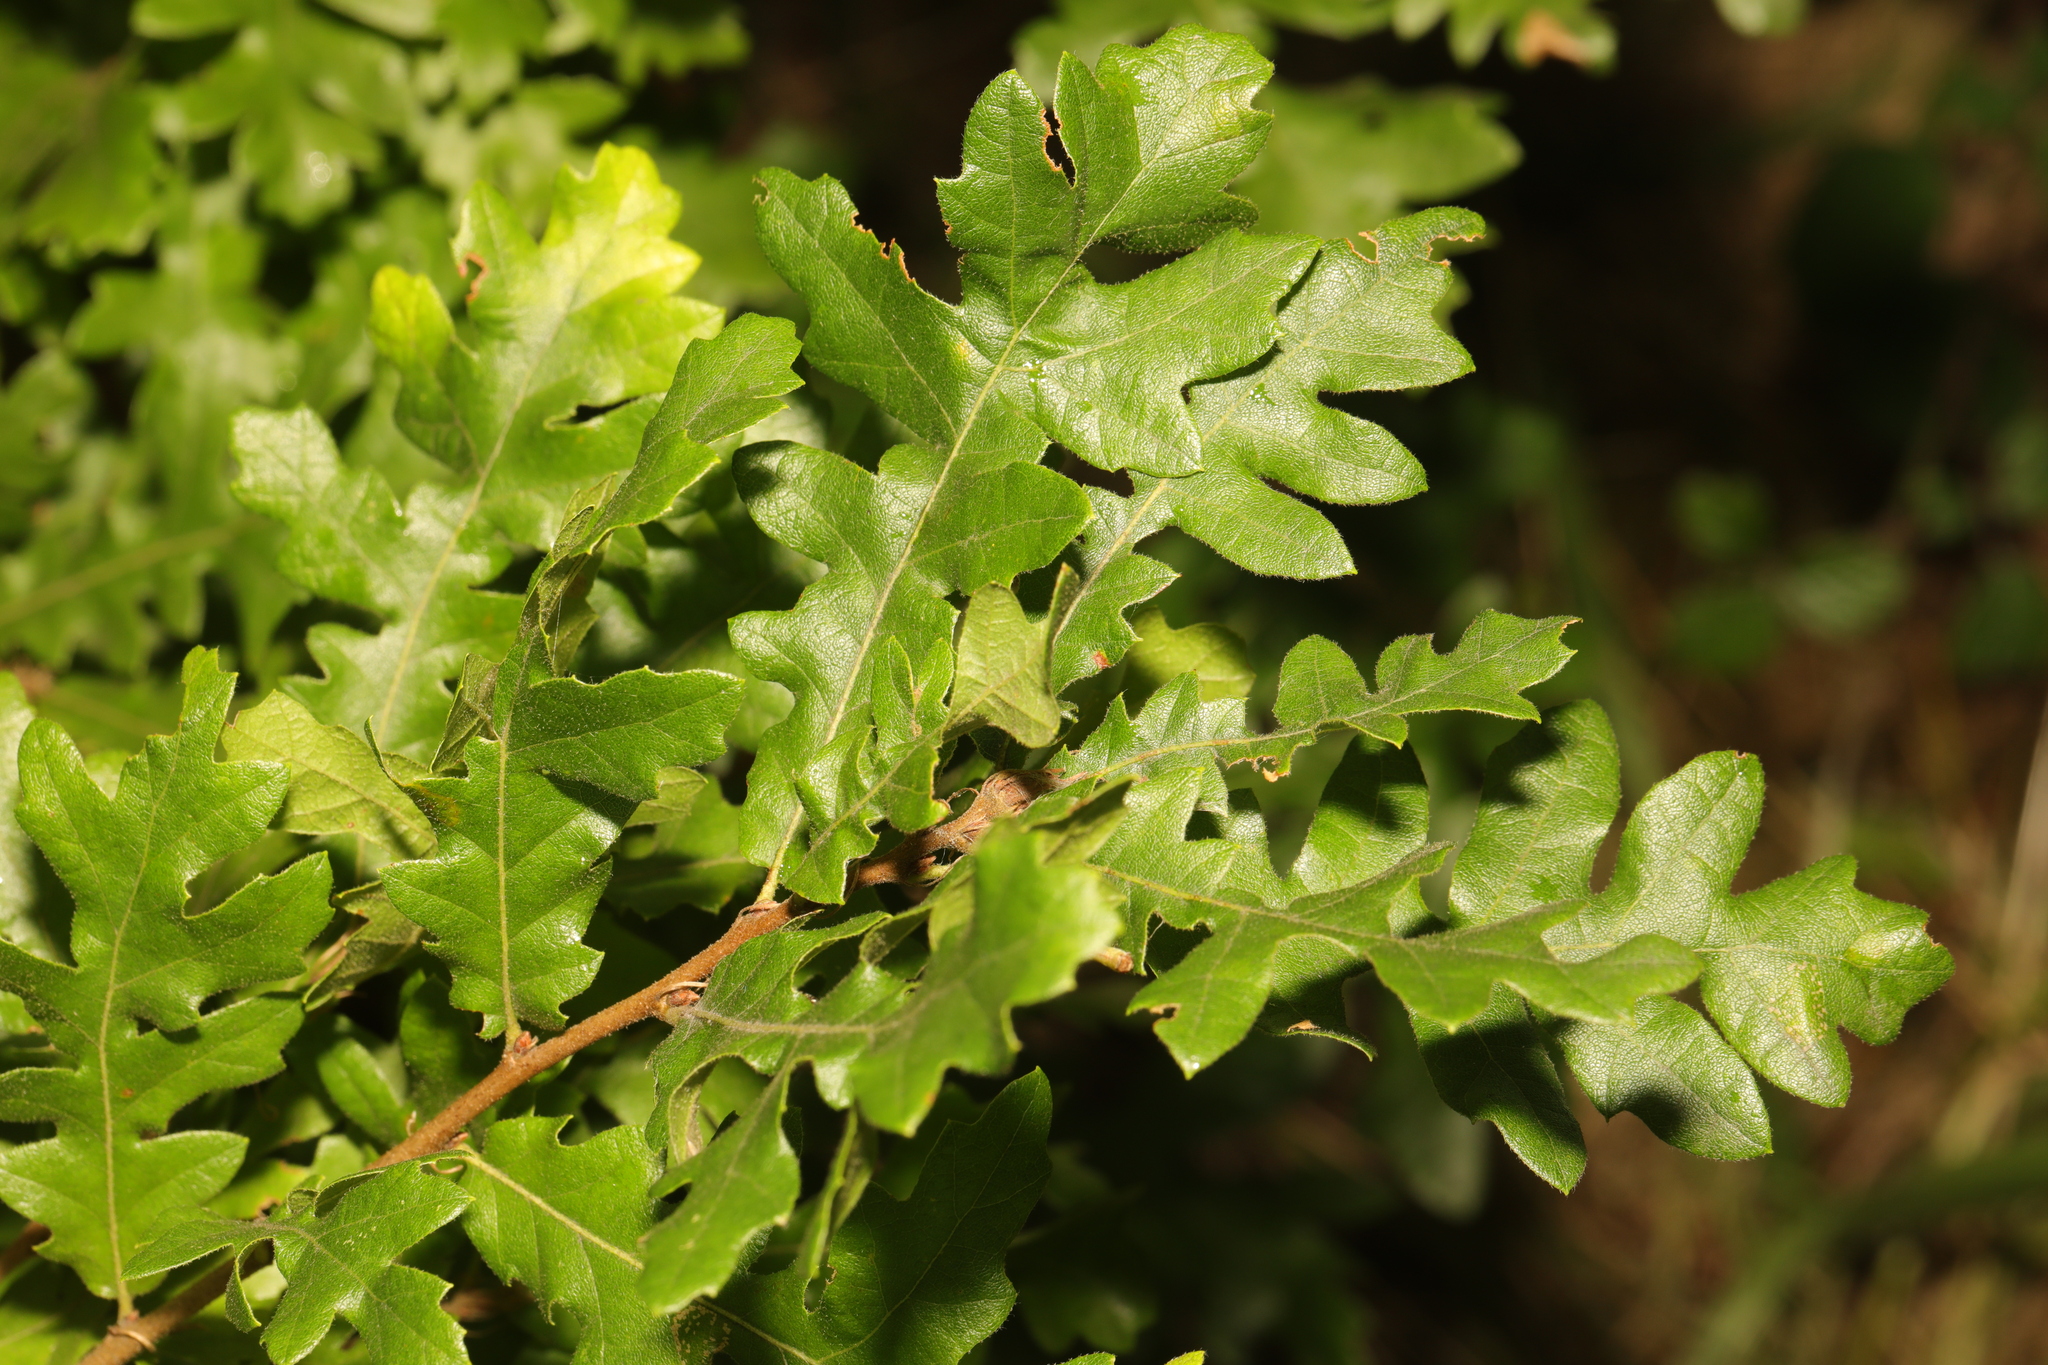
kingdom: Plantae
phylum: Tracheophyta
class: Magnoliopsida
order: Fagales
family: Fagaceae
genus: Quercus
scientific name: Quercus cerris
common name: Turkey oak
